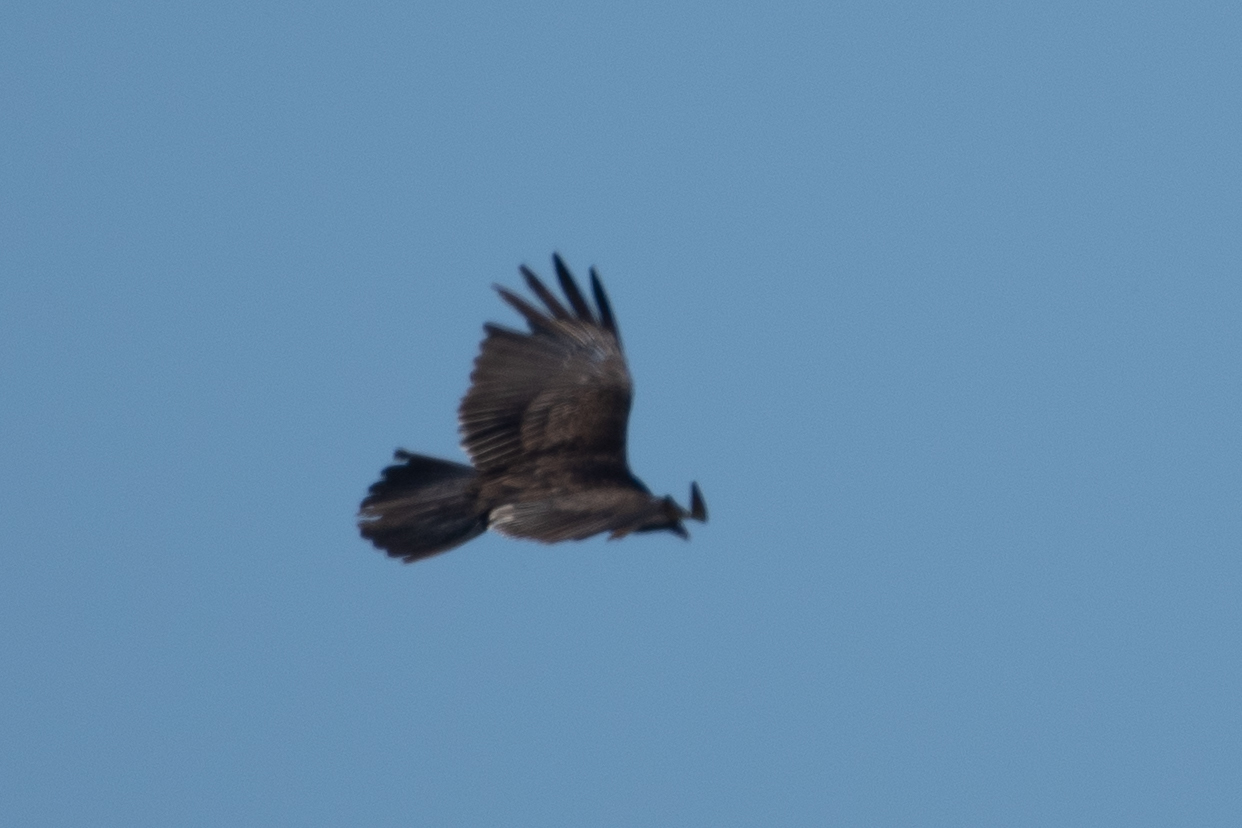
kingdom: Animalia
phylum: Chordata
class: Aves
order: Accipitriformes
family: Cathartidae
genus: Cathartes
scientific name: Cathartes aura
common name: Turkey vulture
